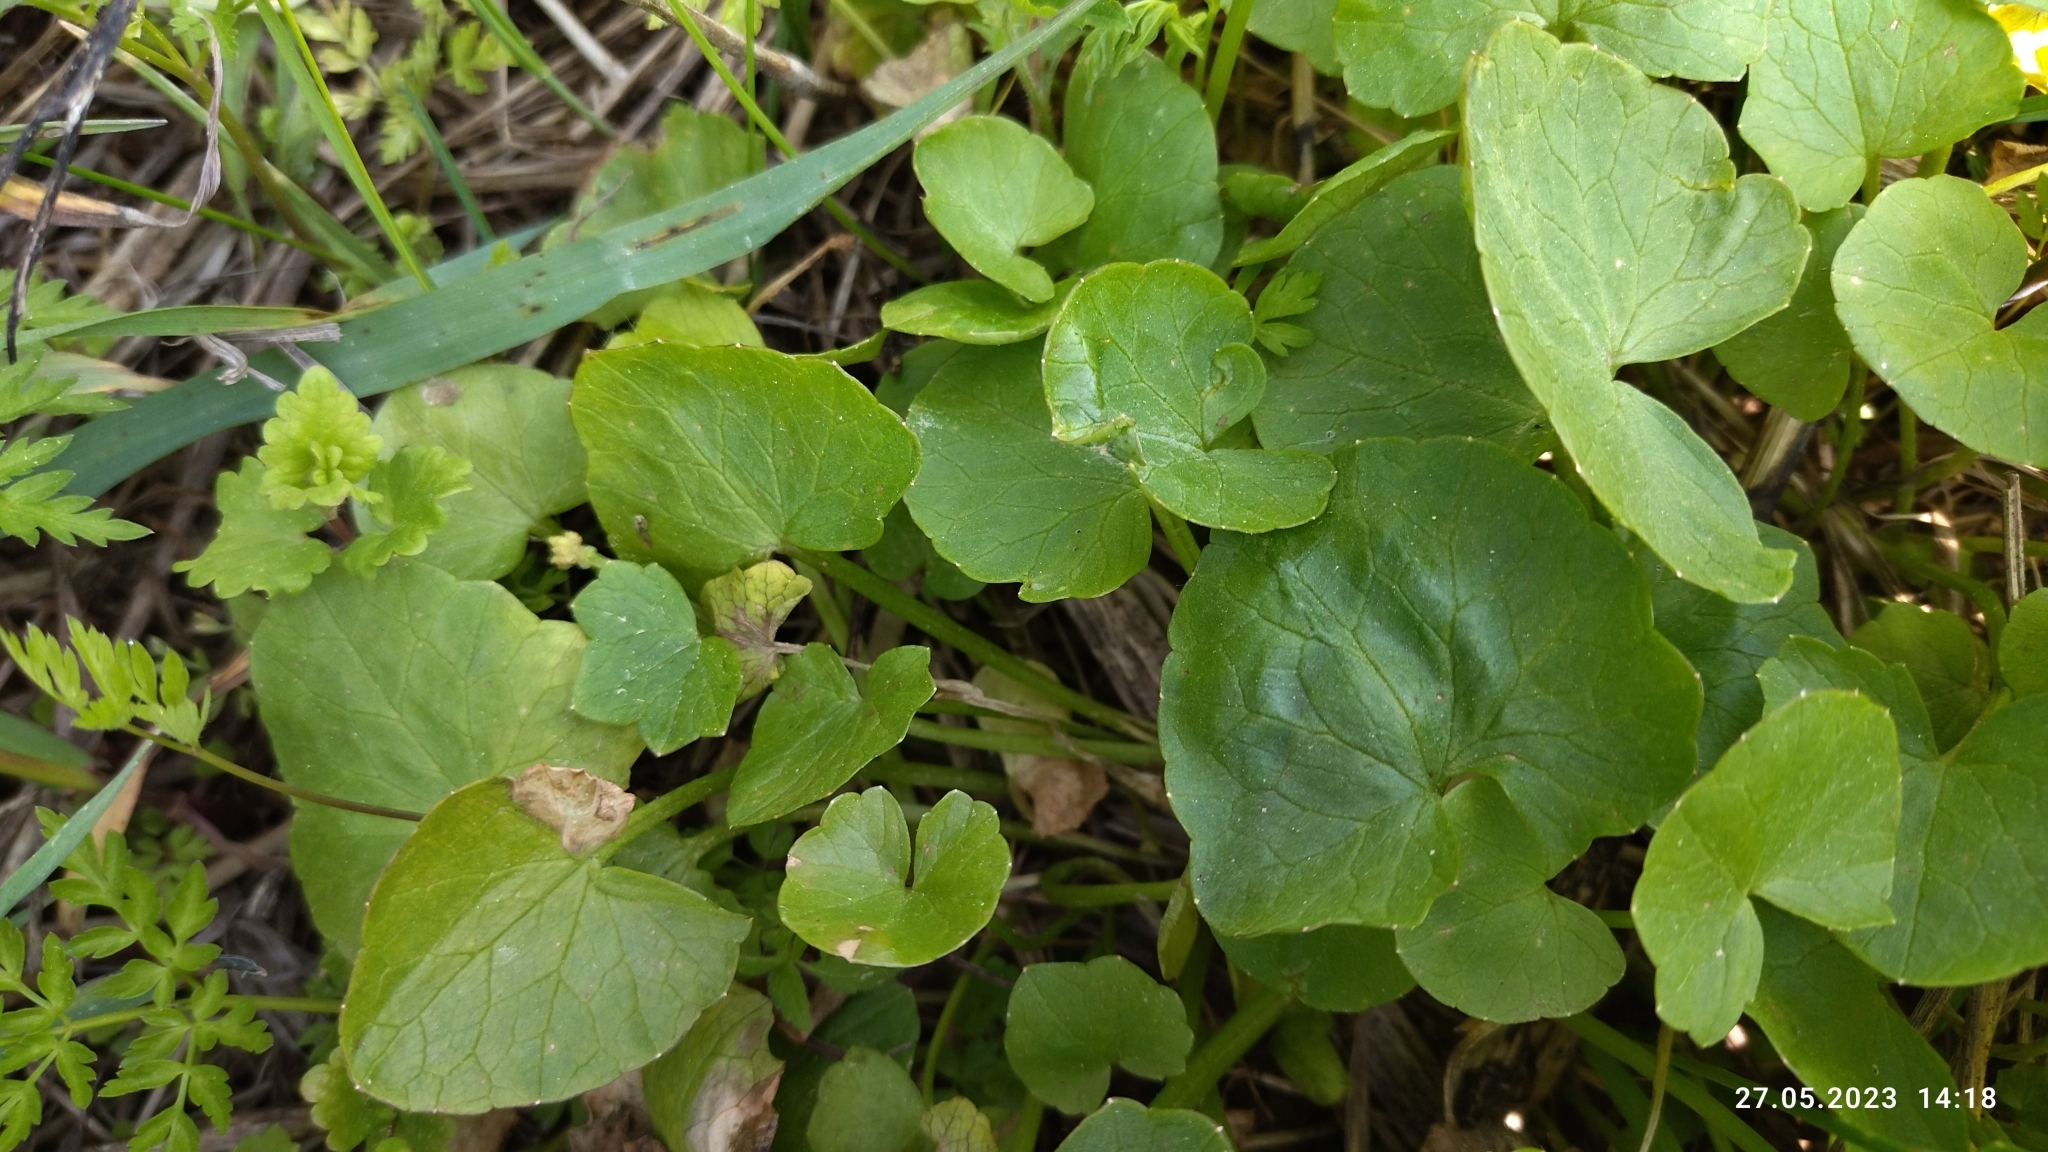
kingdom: Plantae
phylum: Tracheophyta
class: Magnoliopsida
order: Ranunculales
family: Ranunculaceae
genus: Ficaria
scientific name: Ficaria verna
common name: Lesser celandine
